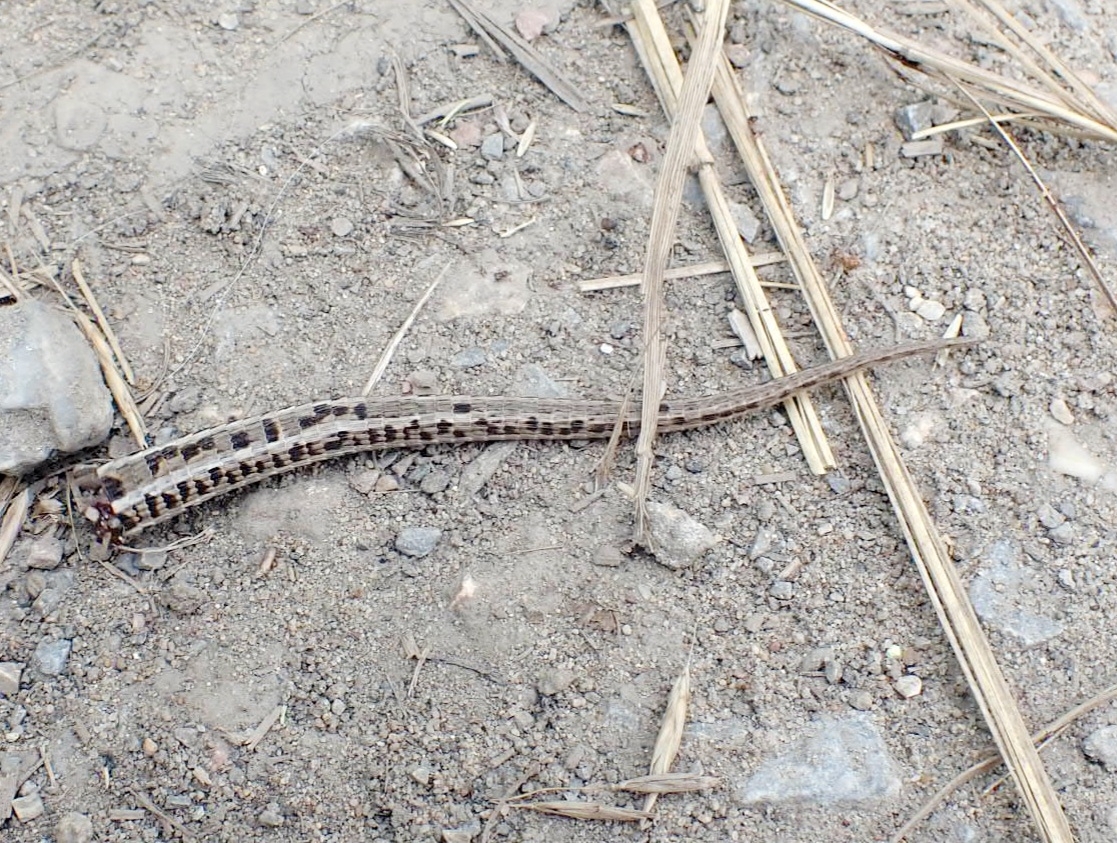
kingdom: Animalia
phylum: Chordata
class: Squamata
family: Lacertidae
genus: Lacerta
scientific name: Lacerta agilis
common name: Sand lizard
